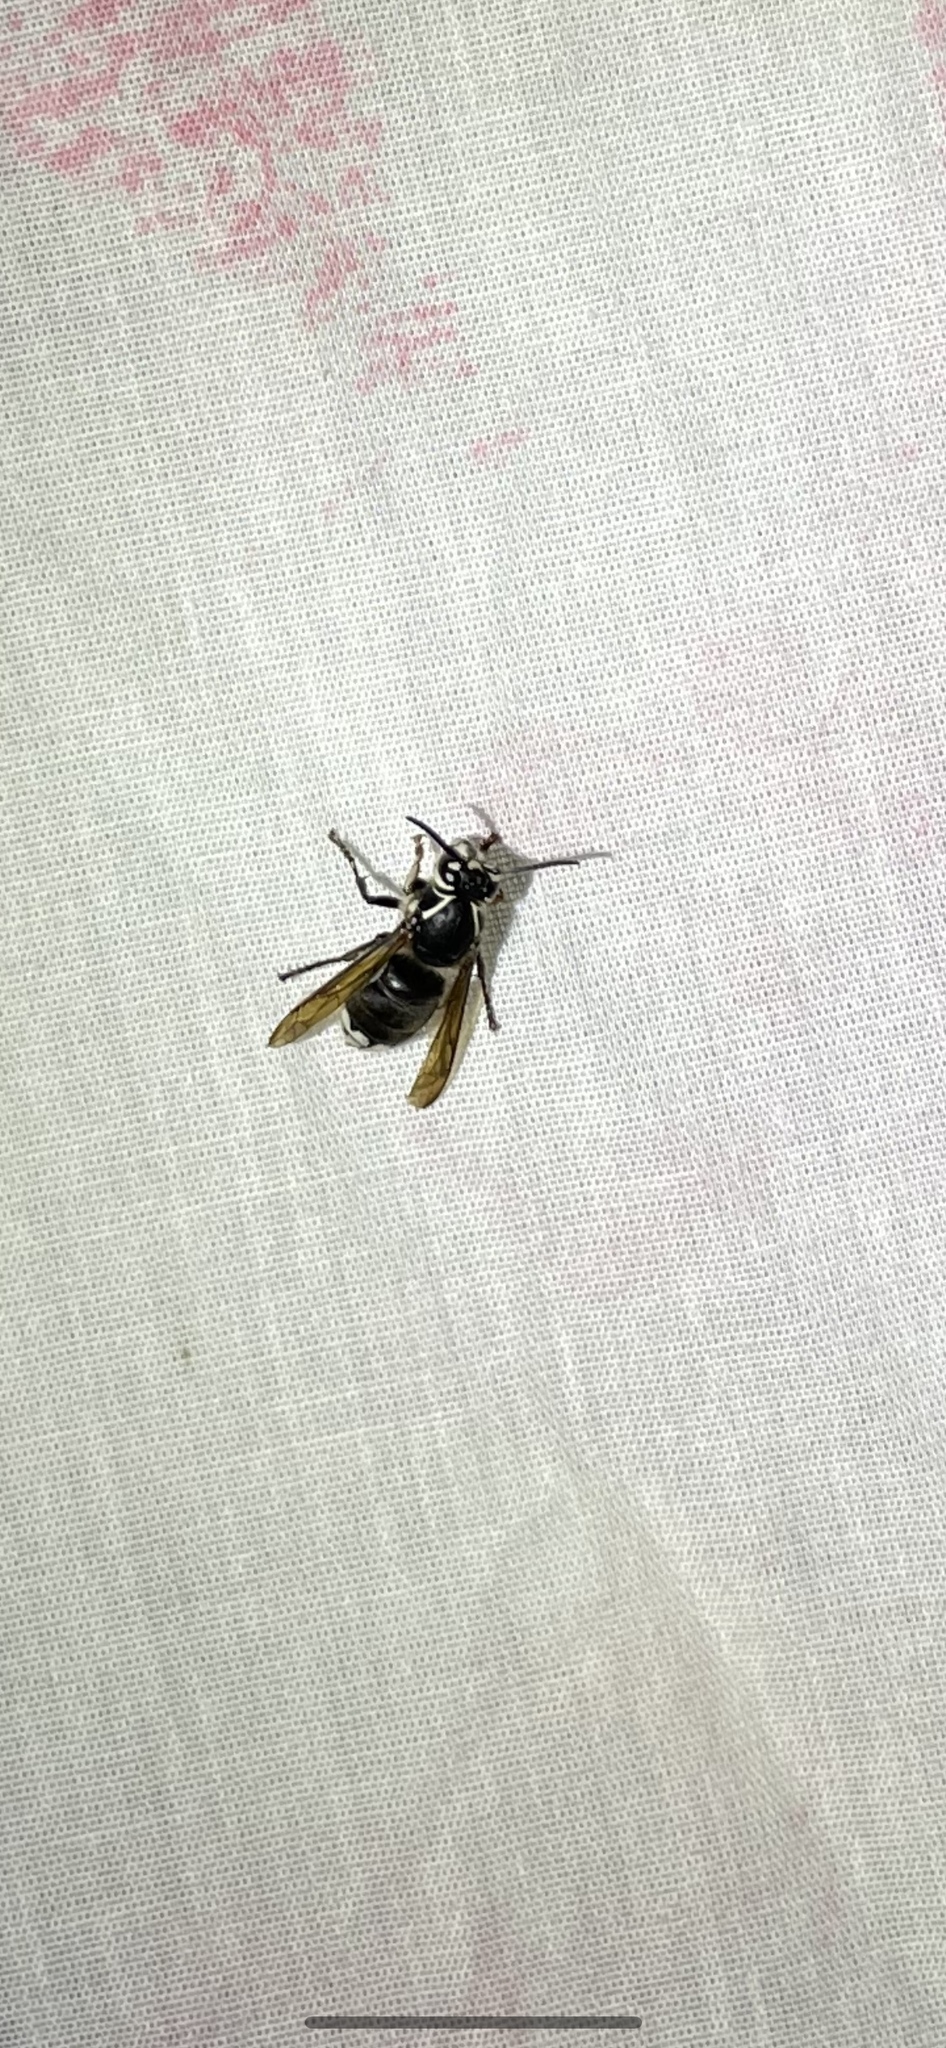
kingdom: Animalia
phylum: Arthropoda
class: Insecta
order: Hymenoptera
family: Vespidae
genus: Dolichovespula
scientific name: Dolichovespula maculata
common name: Bald-faced hornet
